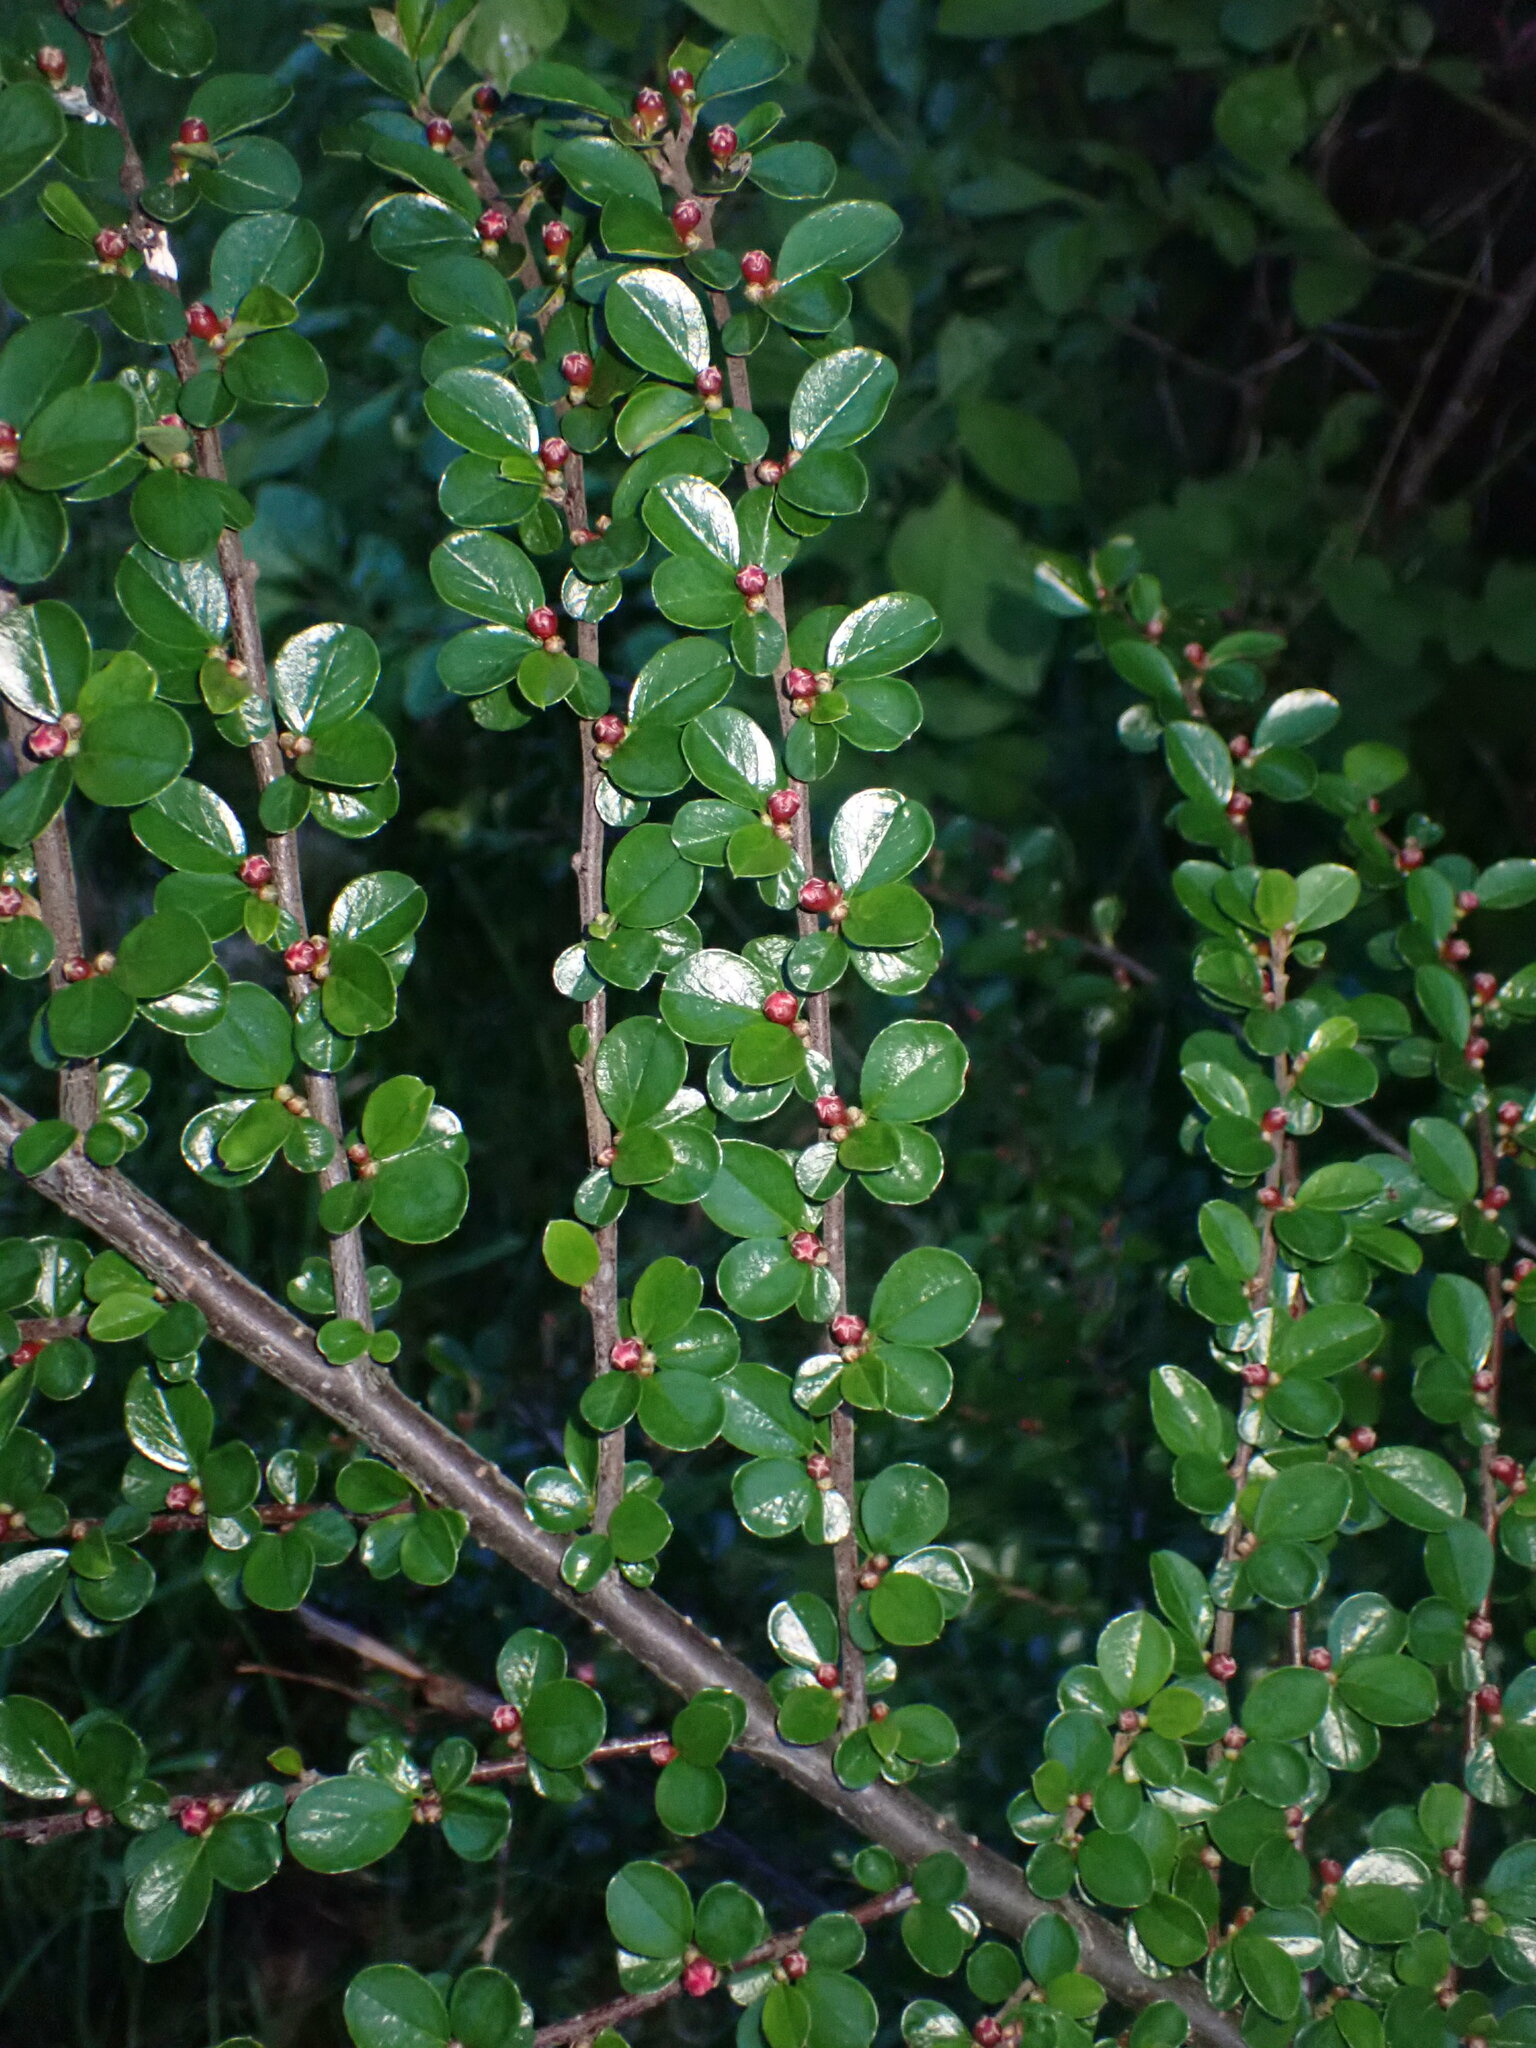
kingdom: Plantae
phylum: Tracheophyta
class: Magnoliopsida
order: Rosales
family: Rosaceae
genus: Cotoneaster
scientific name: Cotoneaster hjelmqvistii
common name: Hjelmqvist's cotoneaster
